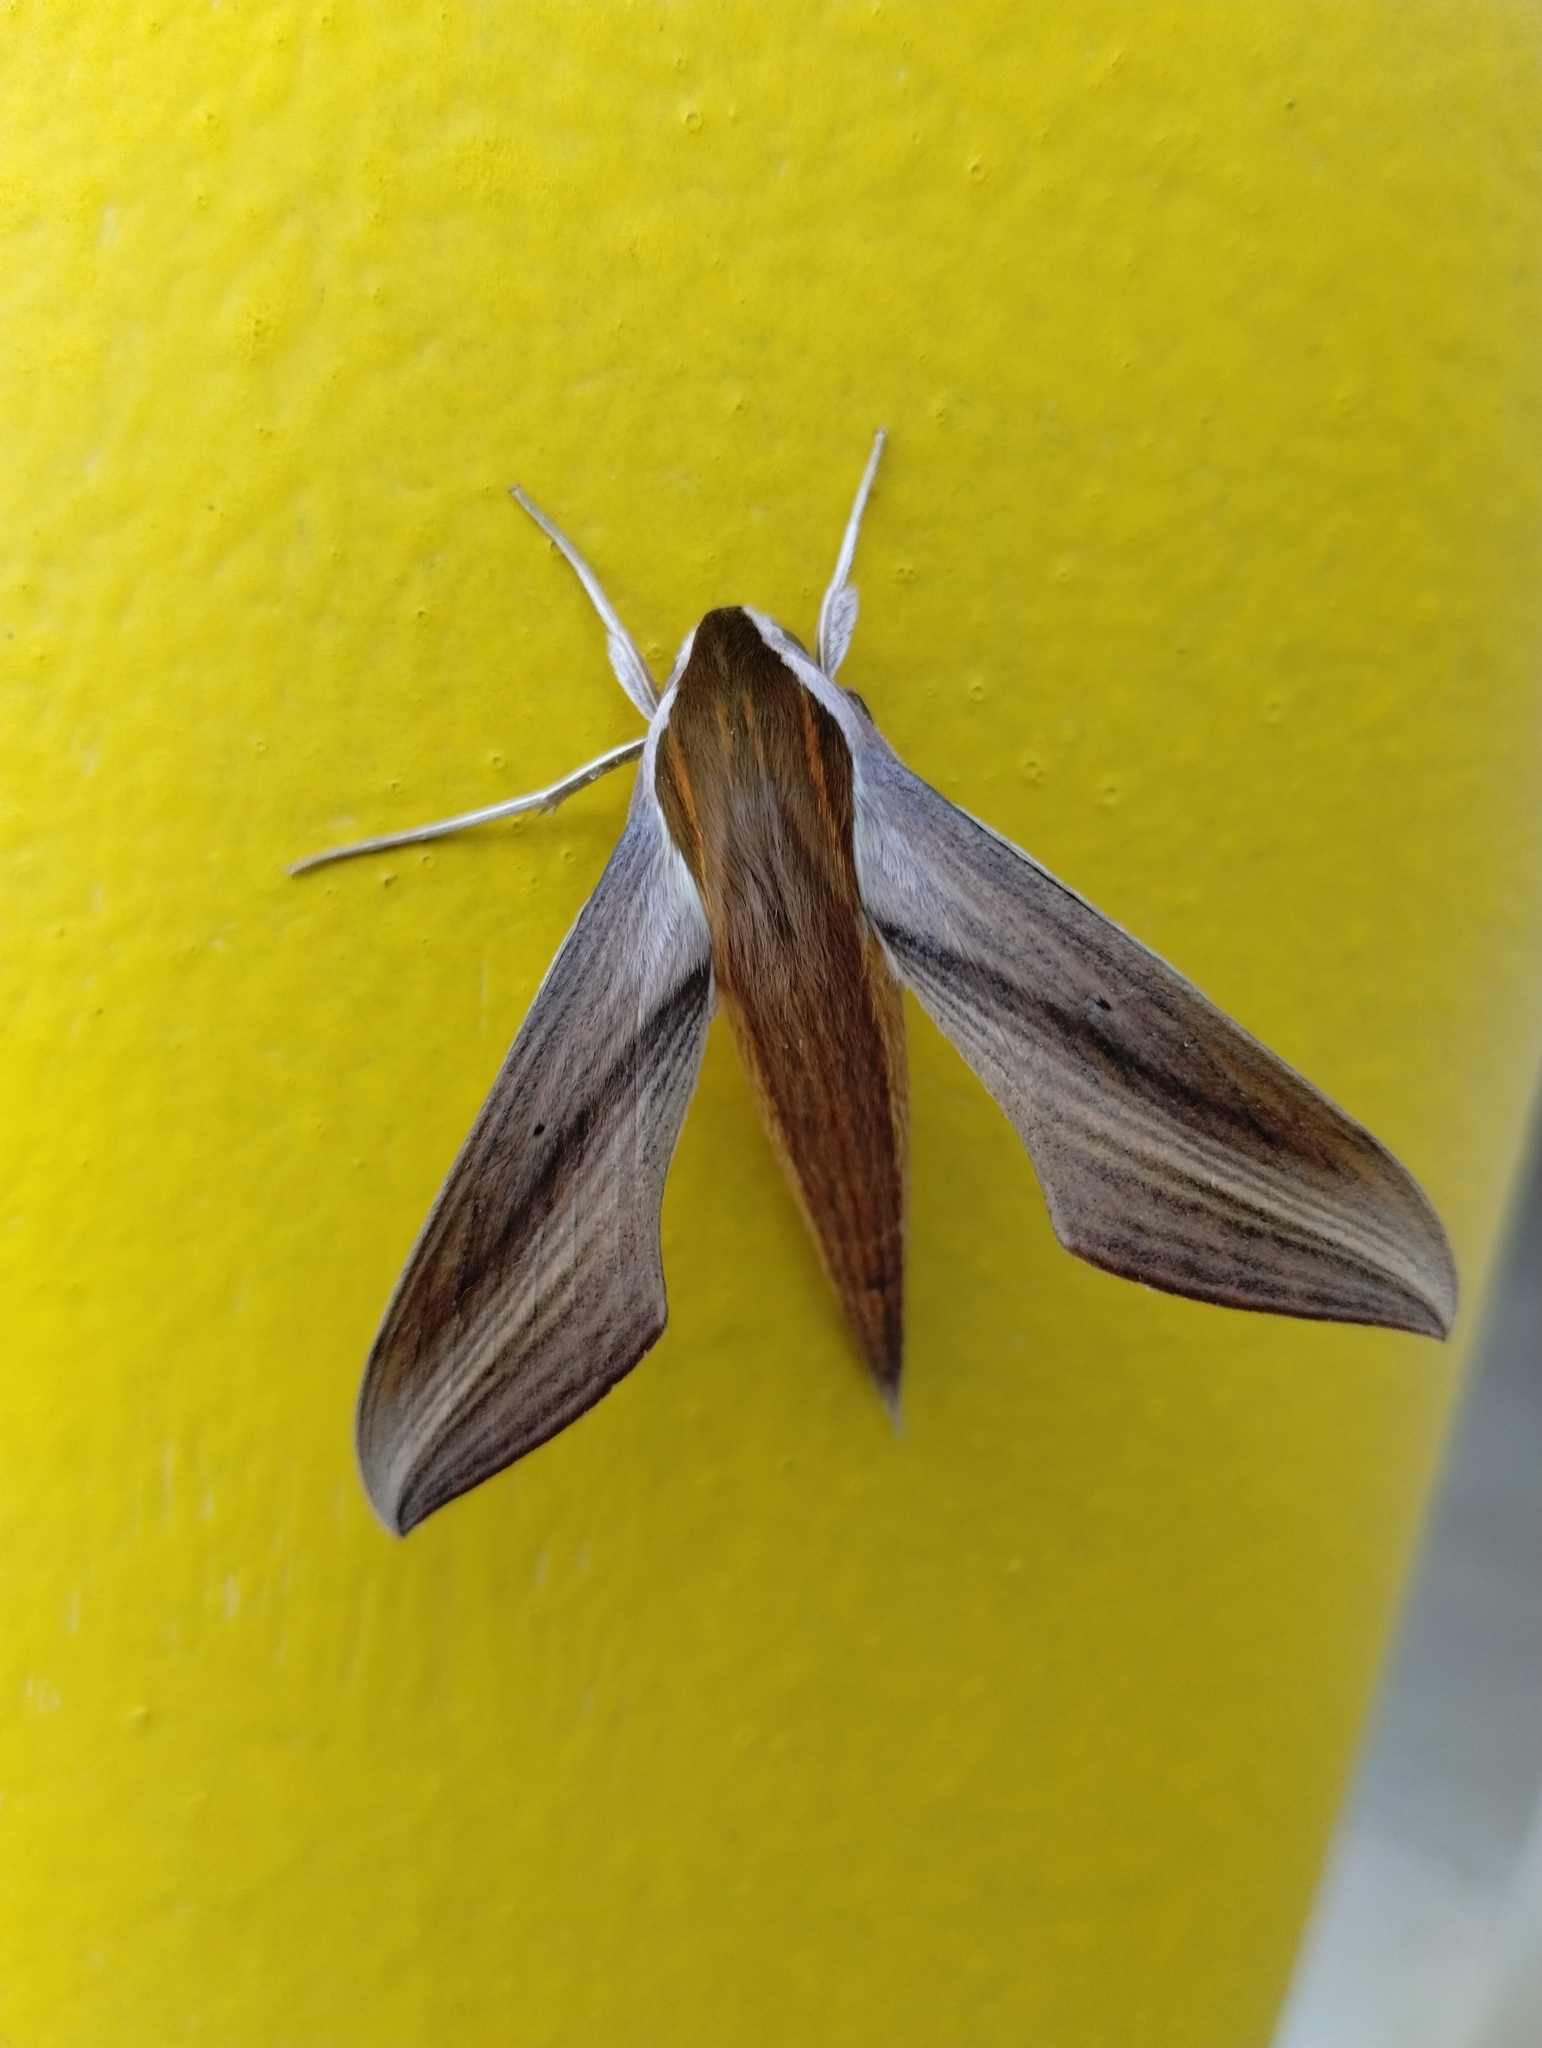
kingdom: Animalia
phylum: Arthropoda
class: Insecta
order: Lepidoptera
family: Sphingidae
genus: Xylophanes
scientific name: Xylophanes tersa
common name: Tersa sphinx
